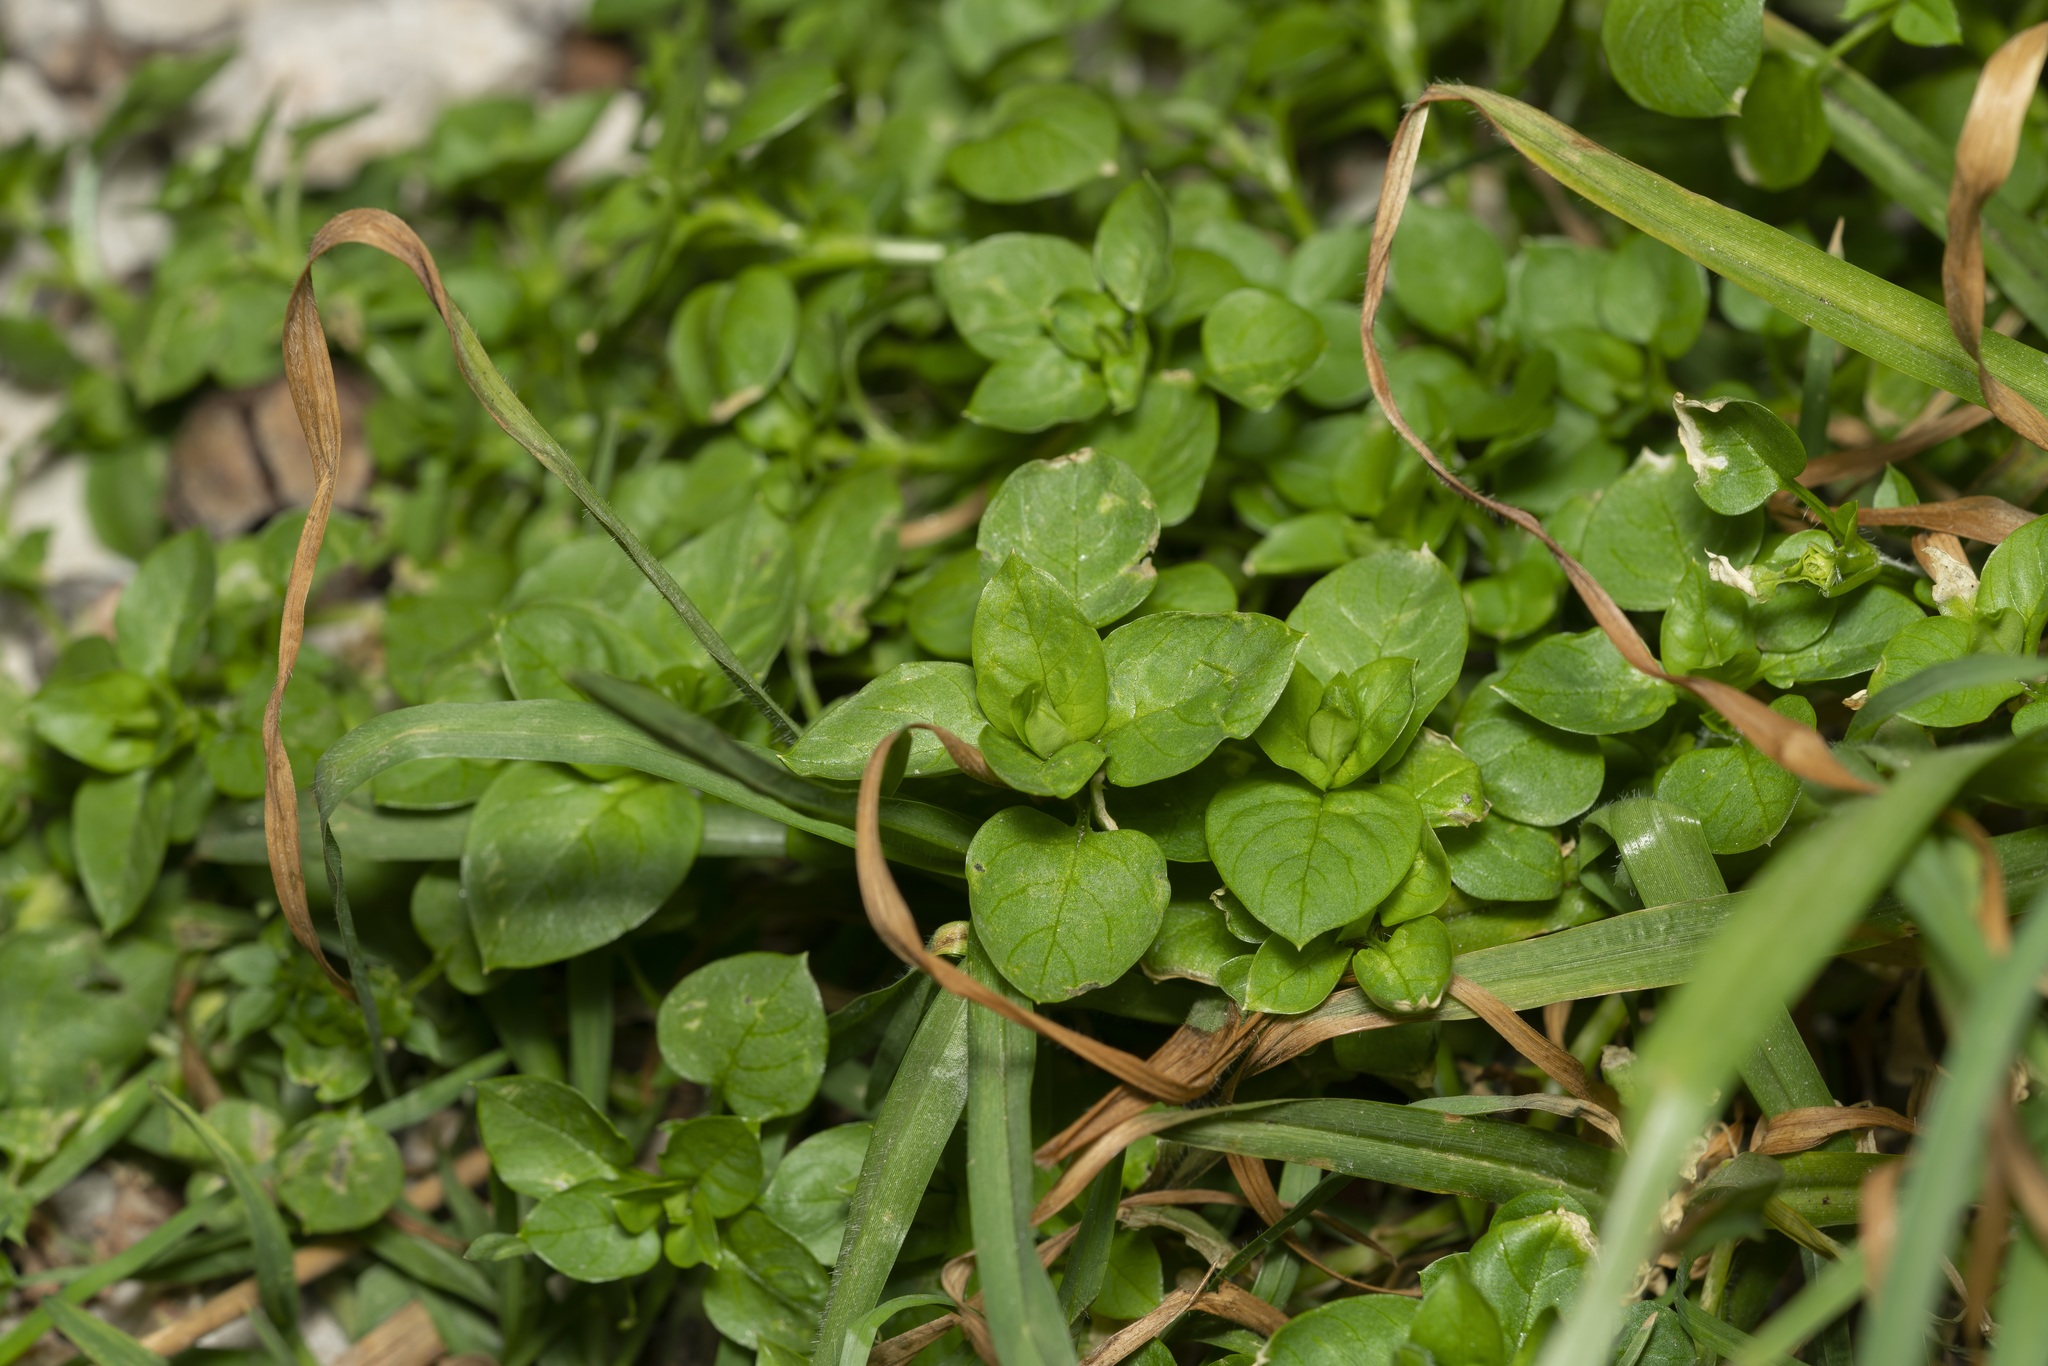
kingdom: Plantae
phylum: Tracheophyta
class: Magnoliopsida
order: Caryophyllales
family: Caryophyllaceae
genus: Stellaria
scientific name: Stellaria media
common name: Common chickweed
